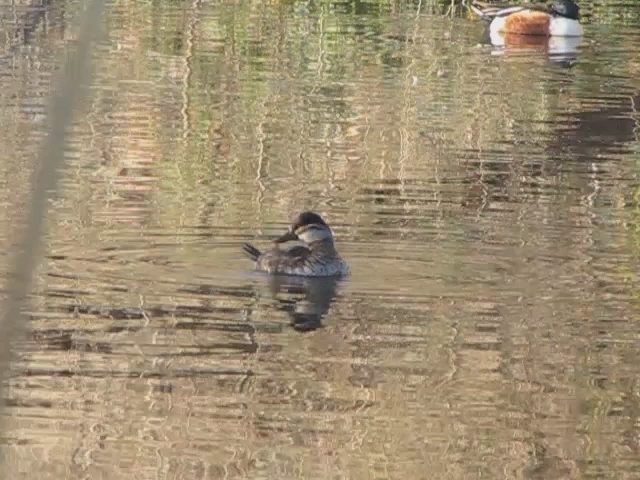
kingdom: Animalia
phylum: Chordata
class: Aves
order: Anseriformes
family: Anatidae
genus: Oxyura
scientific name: Oxyura jamaicensis
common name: Ruddy duck
